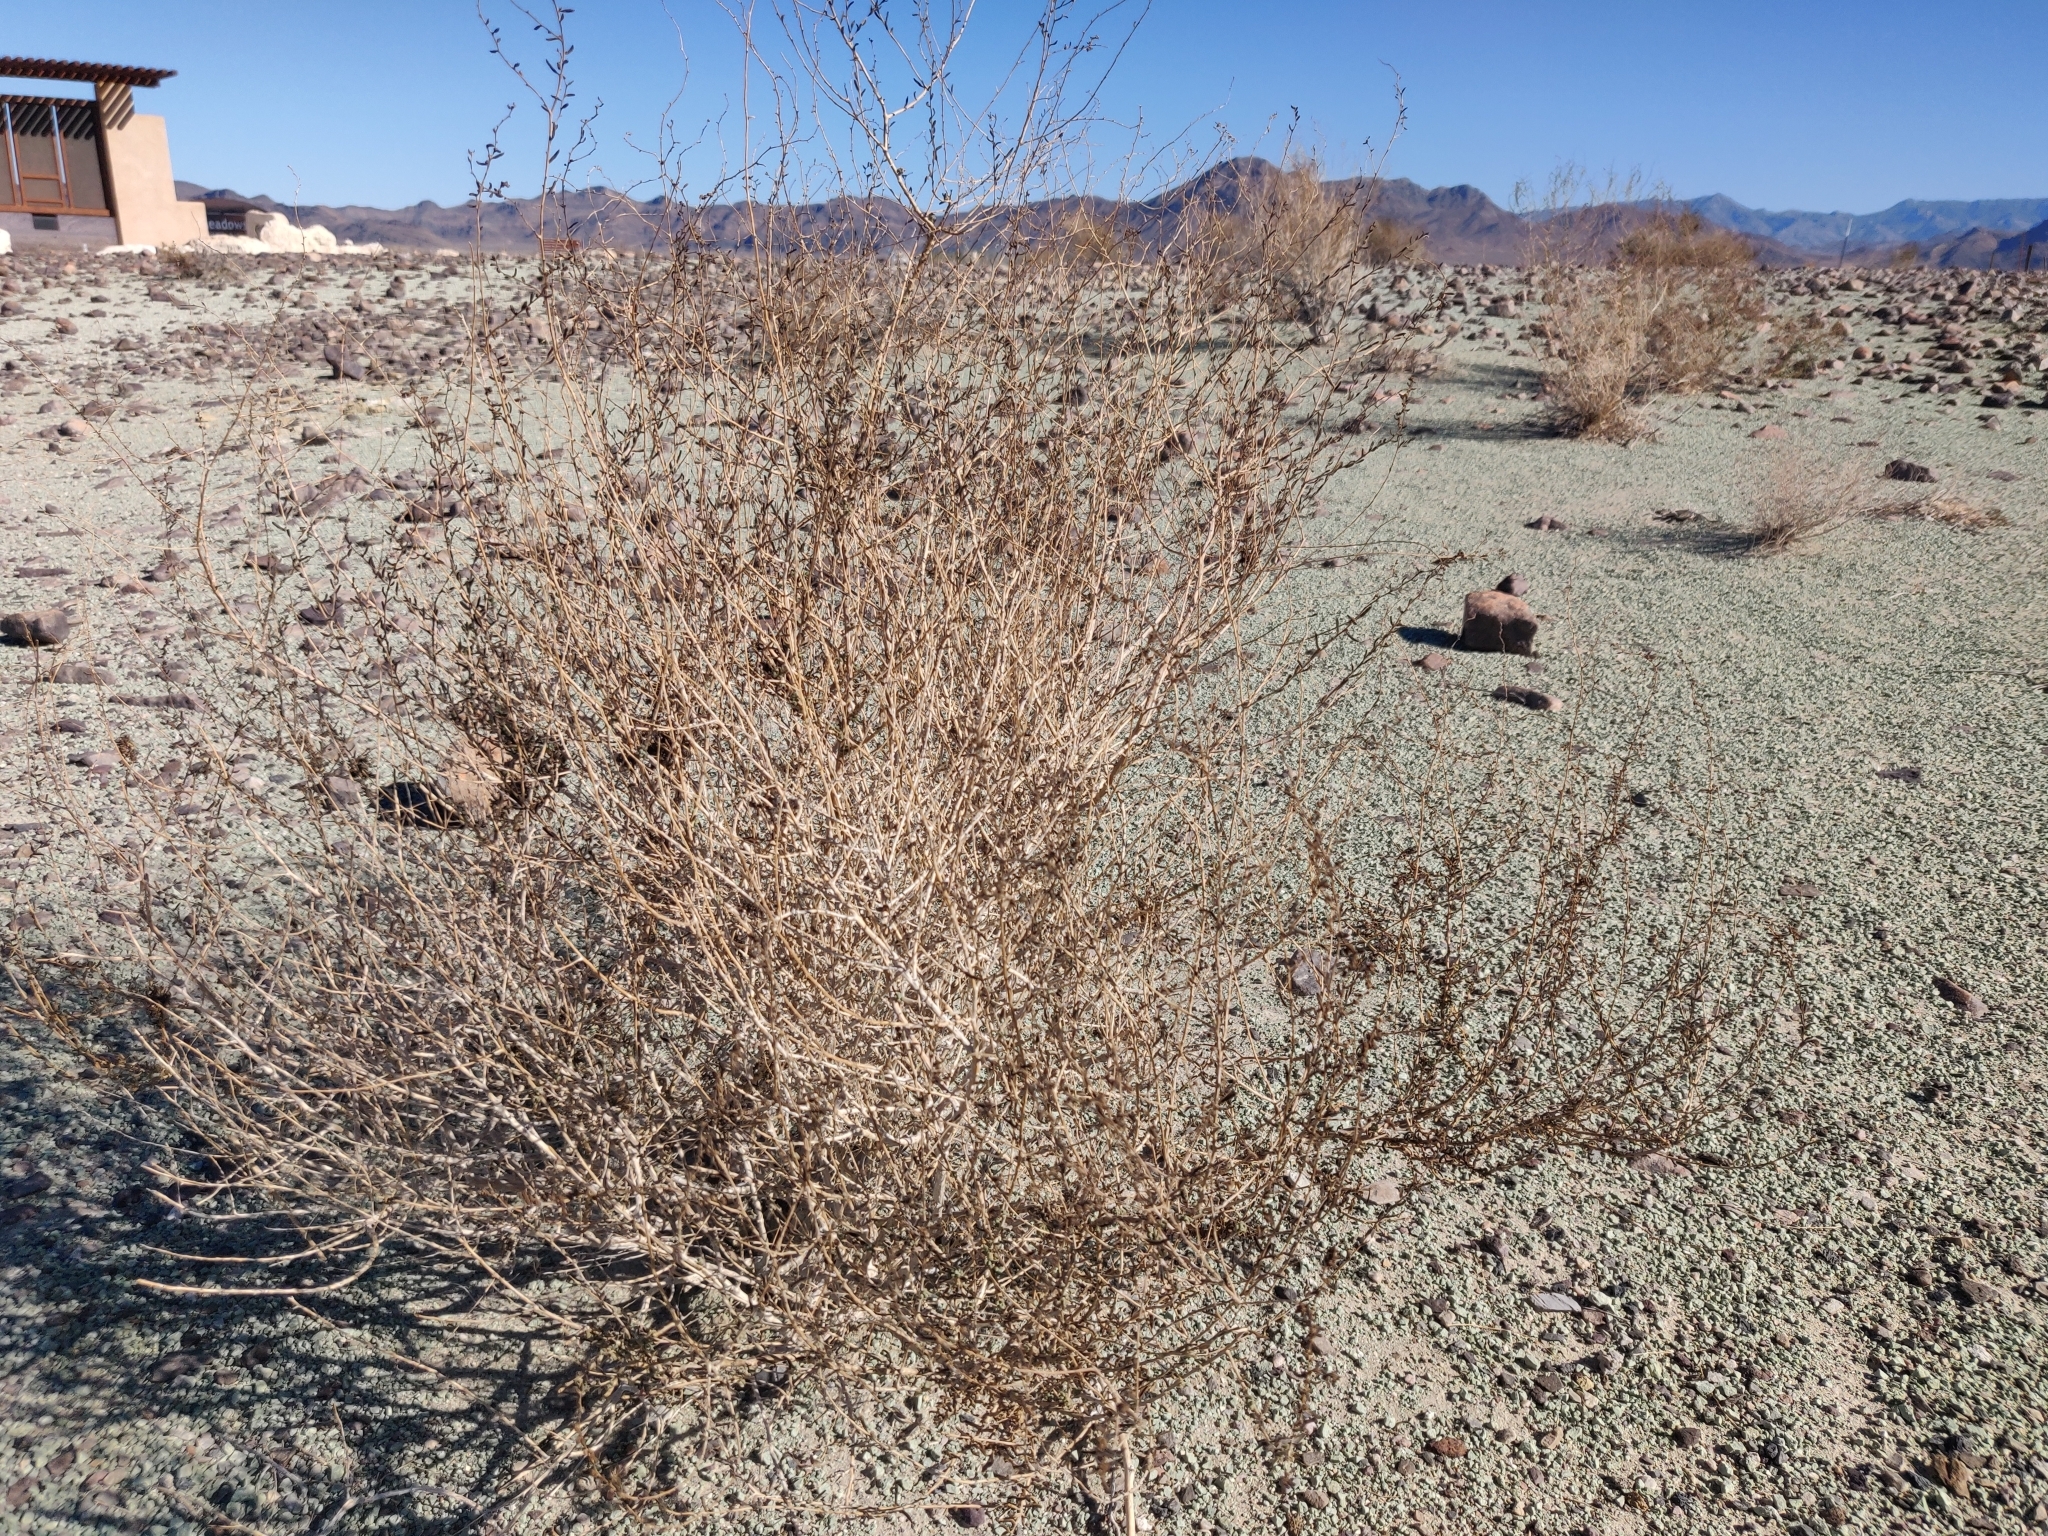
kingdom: Plantae
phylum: Tracheophyta
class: Magnoliopsida
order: Caryophyllales
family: Amaranthaceae
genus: Suaeda
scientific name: Suaeda nigra
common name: Bush seepweed
